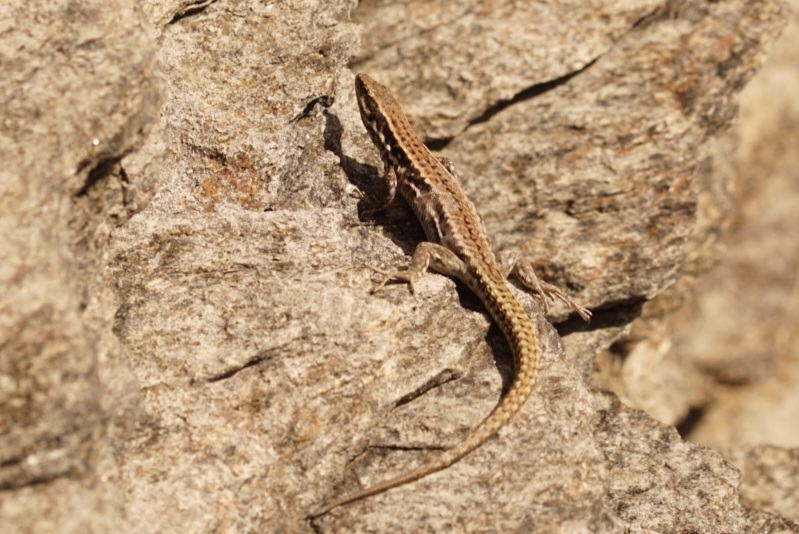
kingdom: Animalia
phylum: Chordata
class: Squamata
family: Lacertidae
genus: Podarcis
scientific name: Podarcis muralis
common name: Common wall lizard
